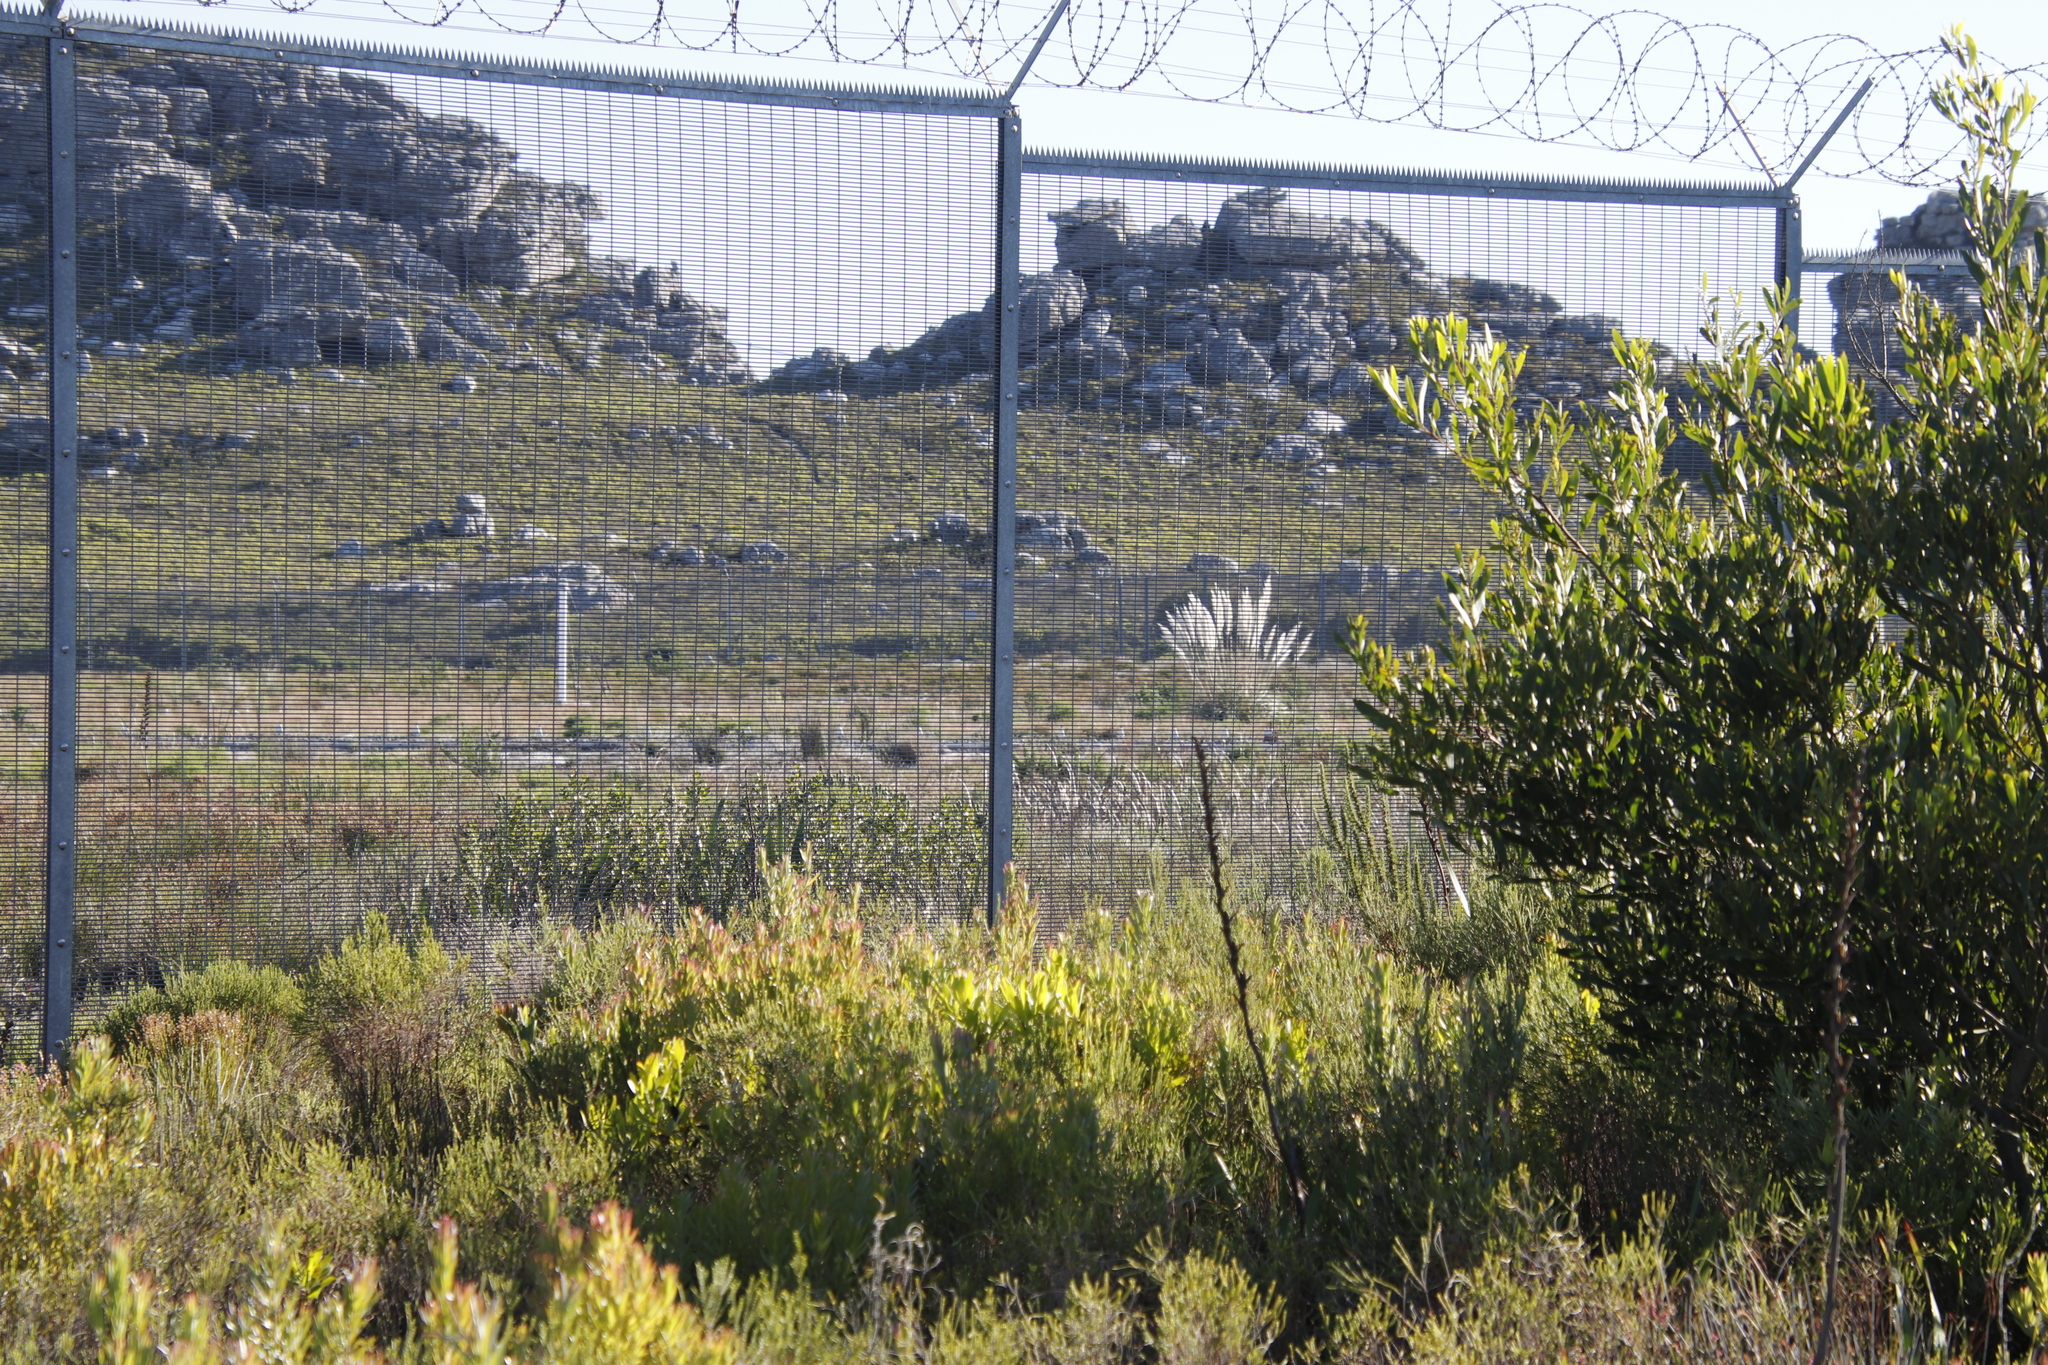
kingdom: Plantae
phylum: Tracheophyta
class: Liliopsida
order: Poales
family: Poaceae
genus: Cortaderia
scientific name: Cortaderia selloana
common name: Uruguayan pampas grass
